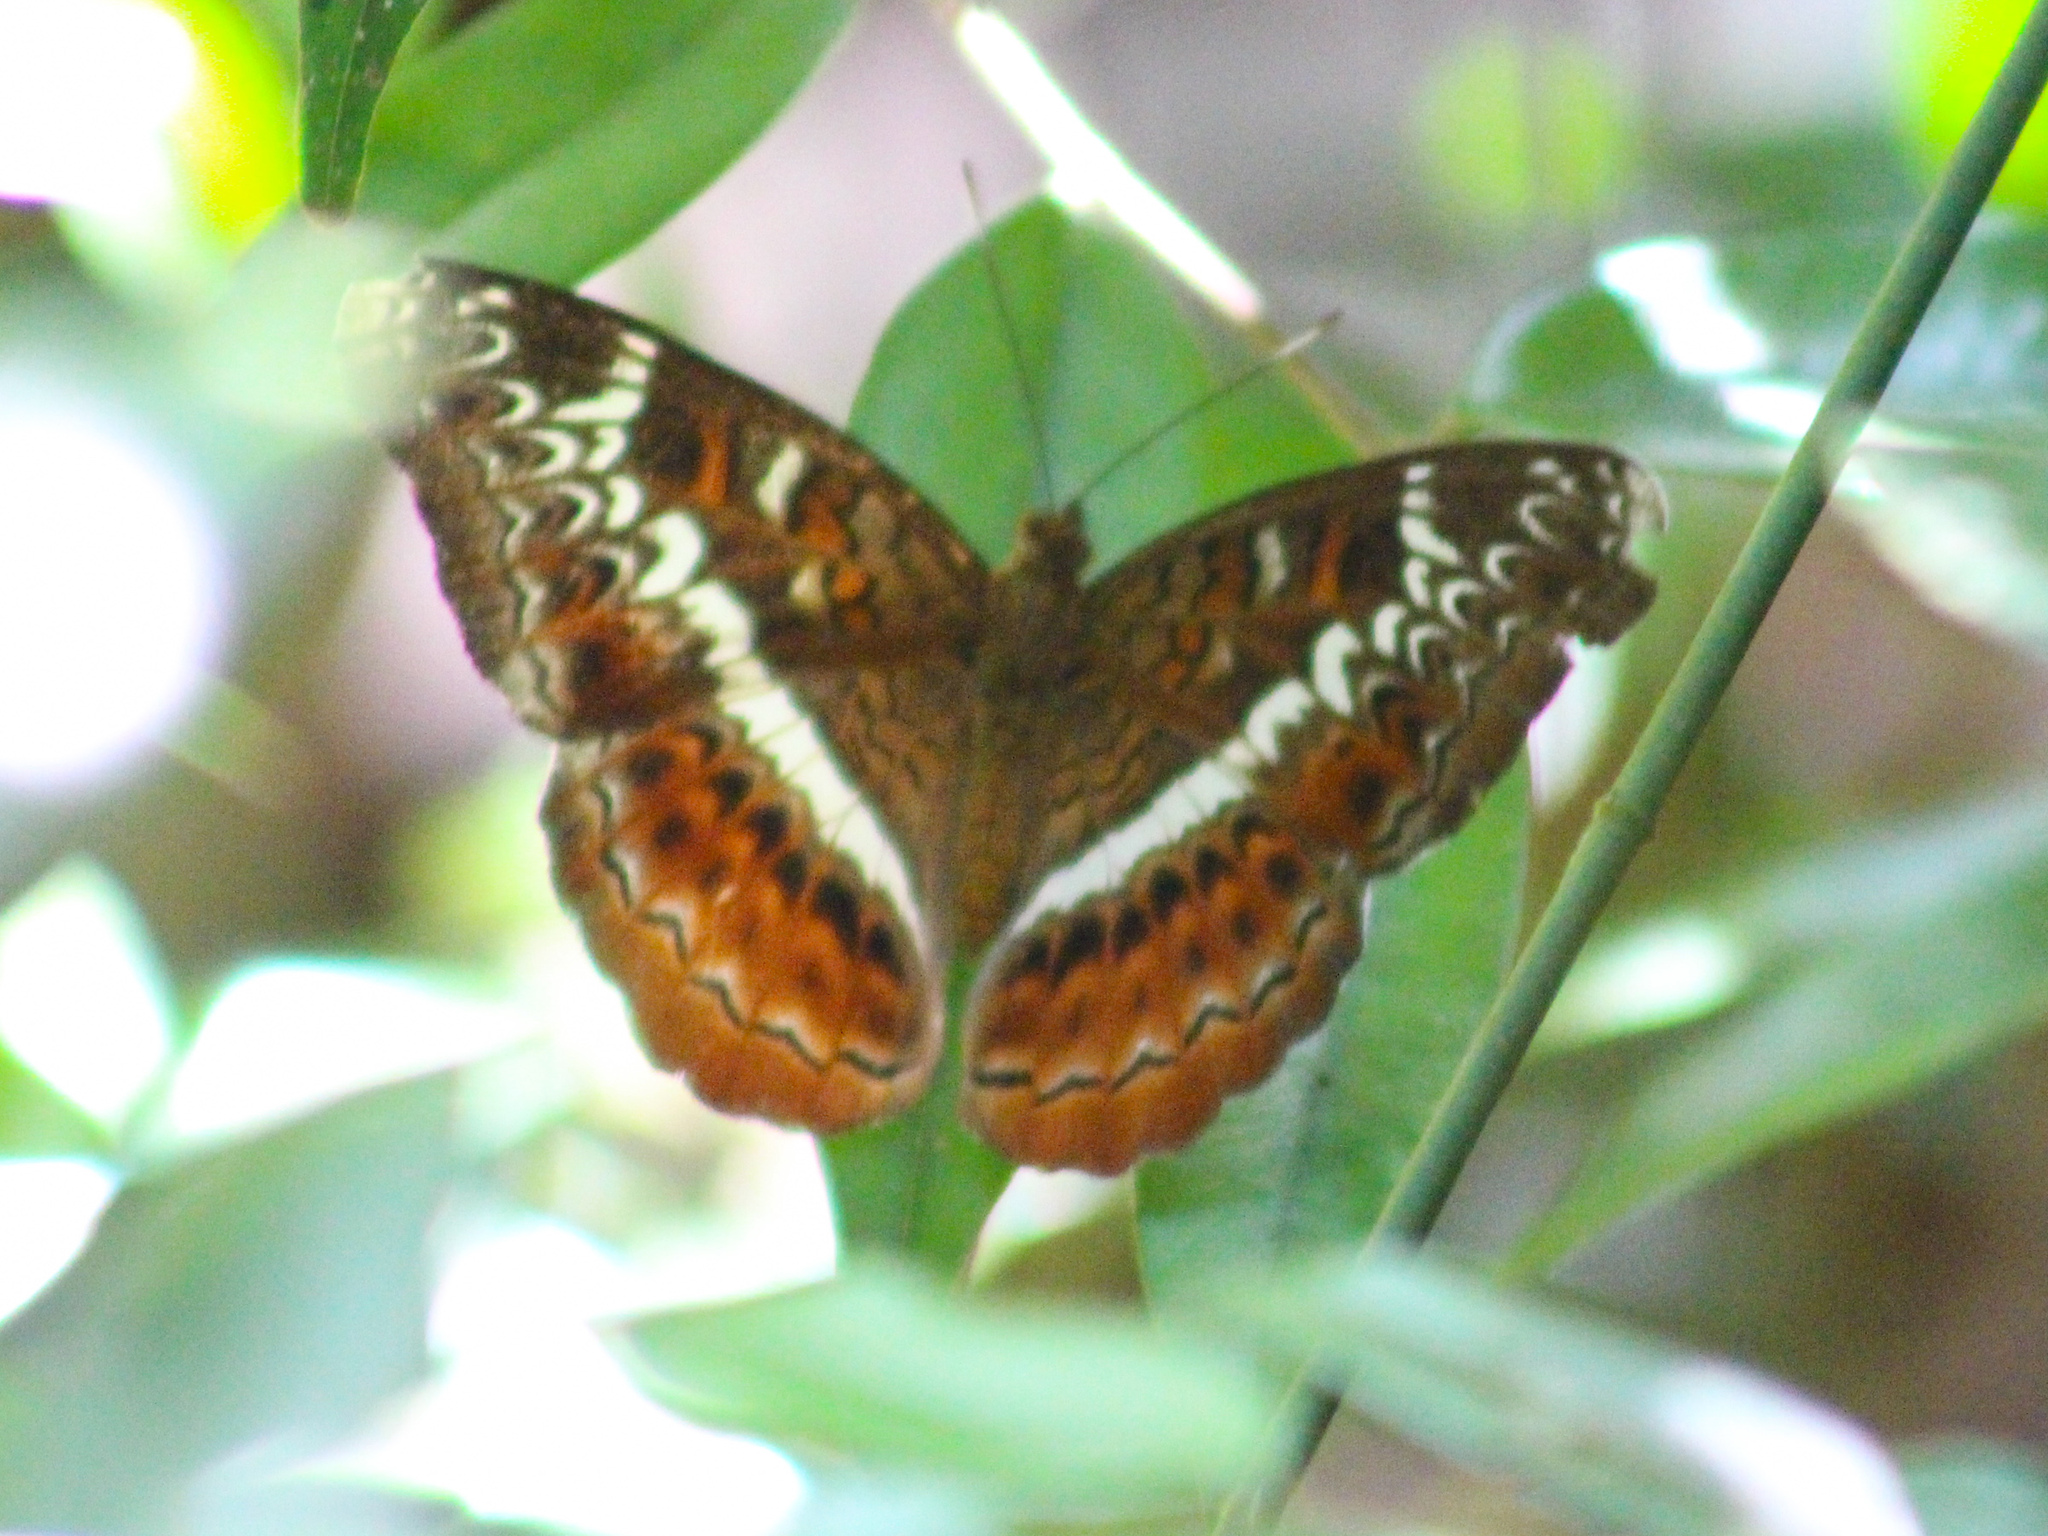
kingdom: Animalia
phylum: Arthropoda
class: Insecta
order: Lepidoptera
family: Nymphalidae
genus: Lebadea
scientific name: Lebadea martha
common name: Knight
